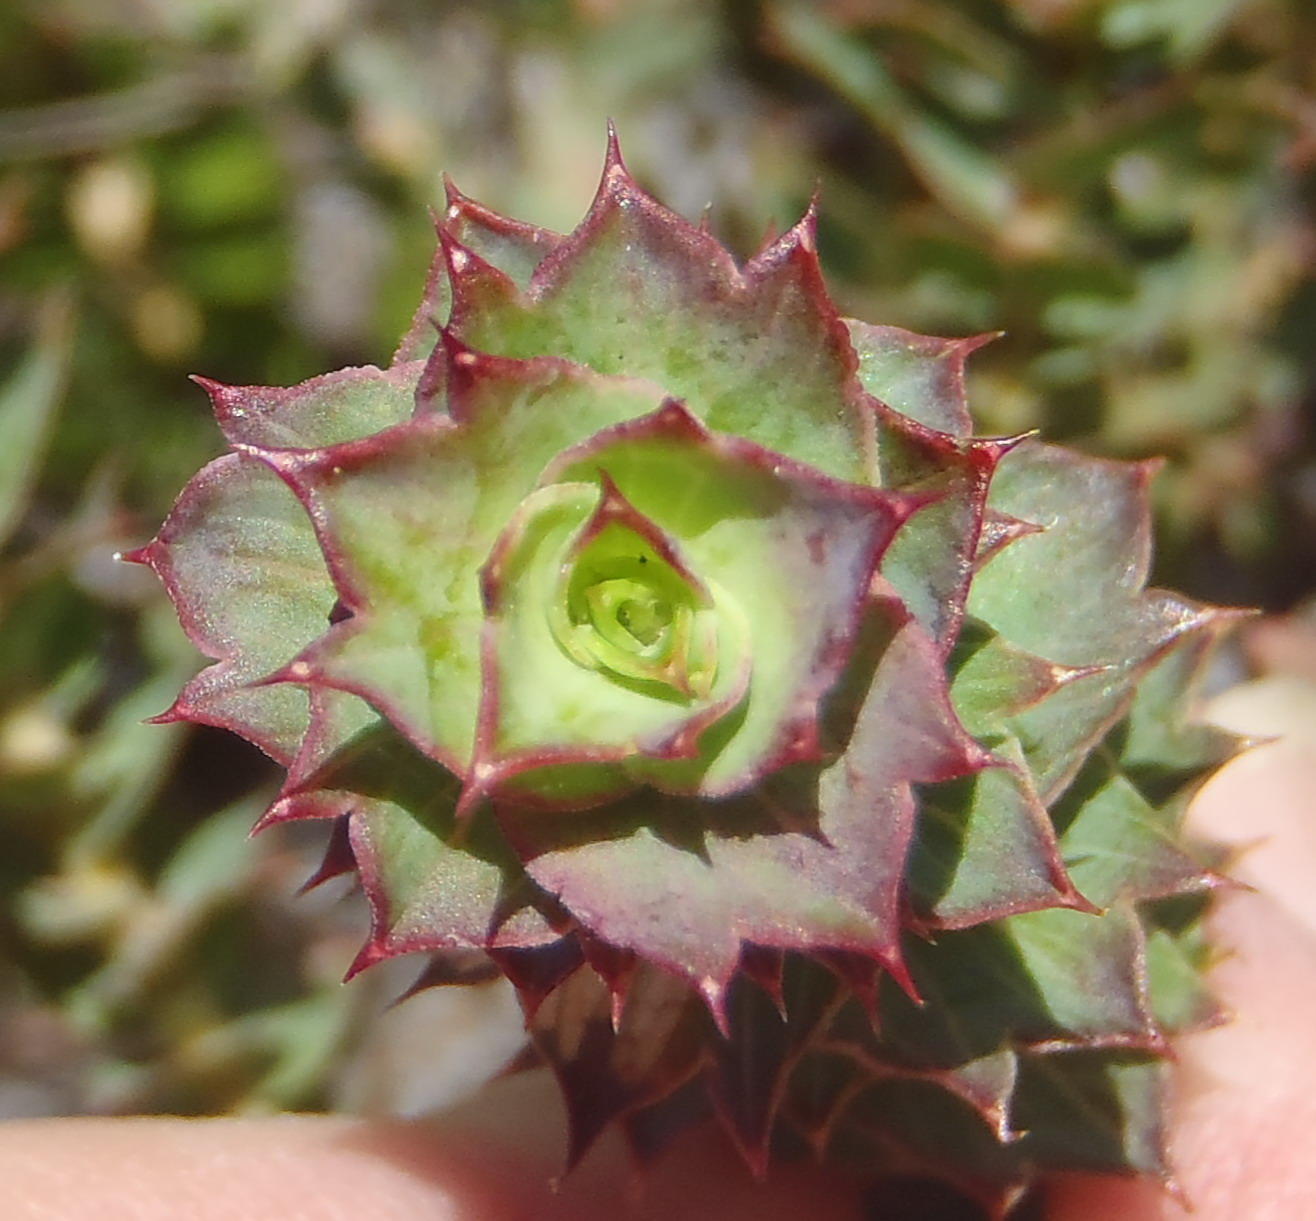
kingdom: Plantae
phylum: Tracheophyta
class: Magnoliopsida
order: Rosales
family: Rosaceae
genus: Cliffortia
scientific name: Cliffortia ilicifolia
